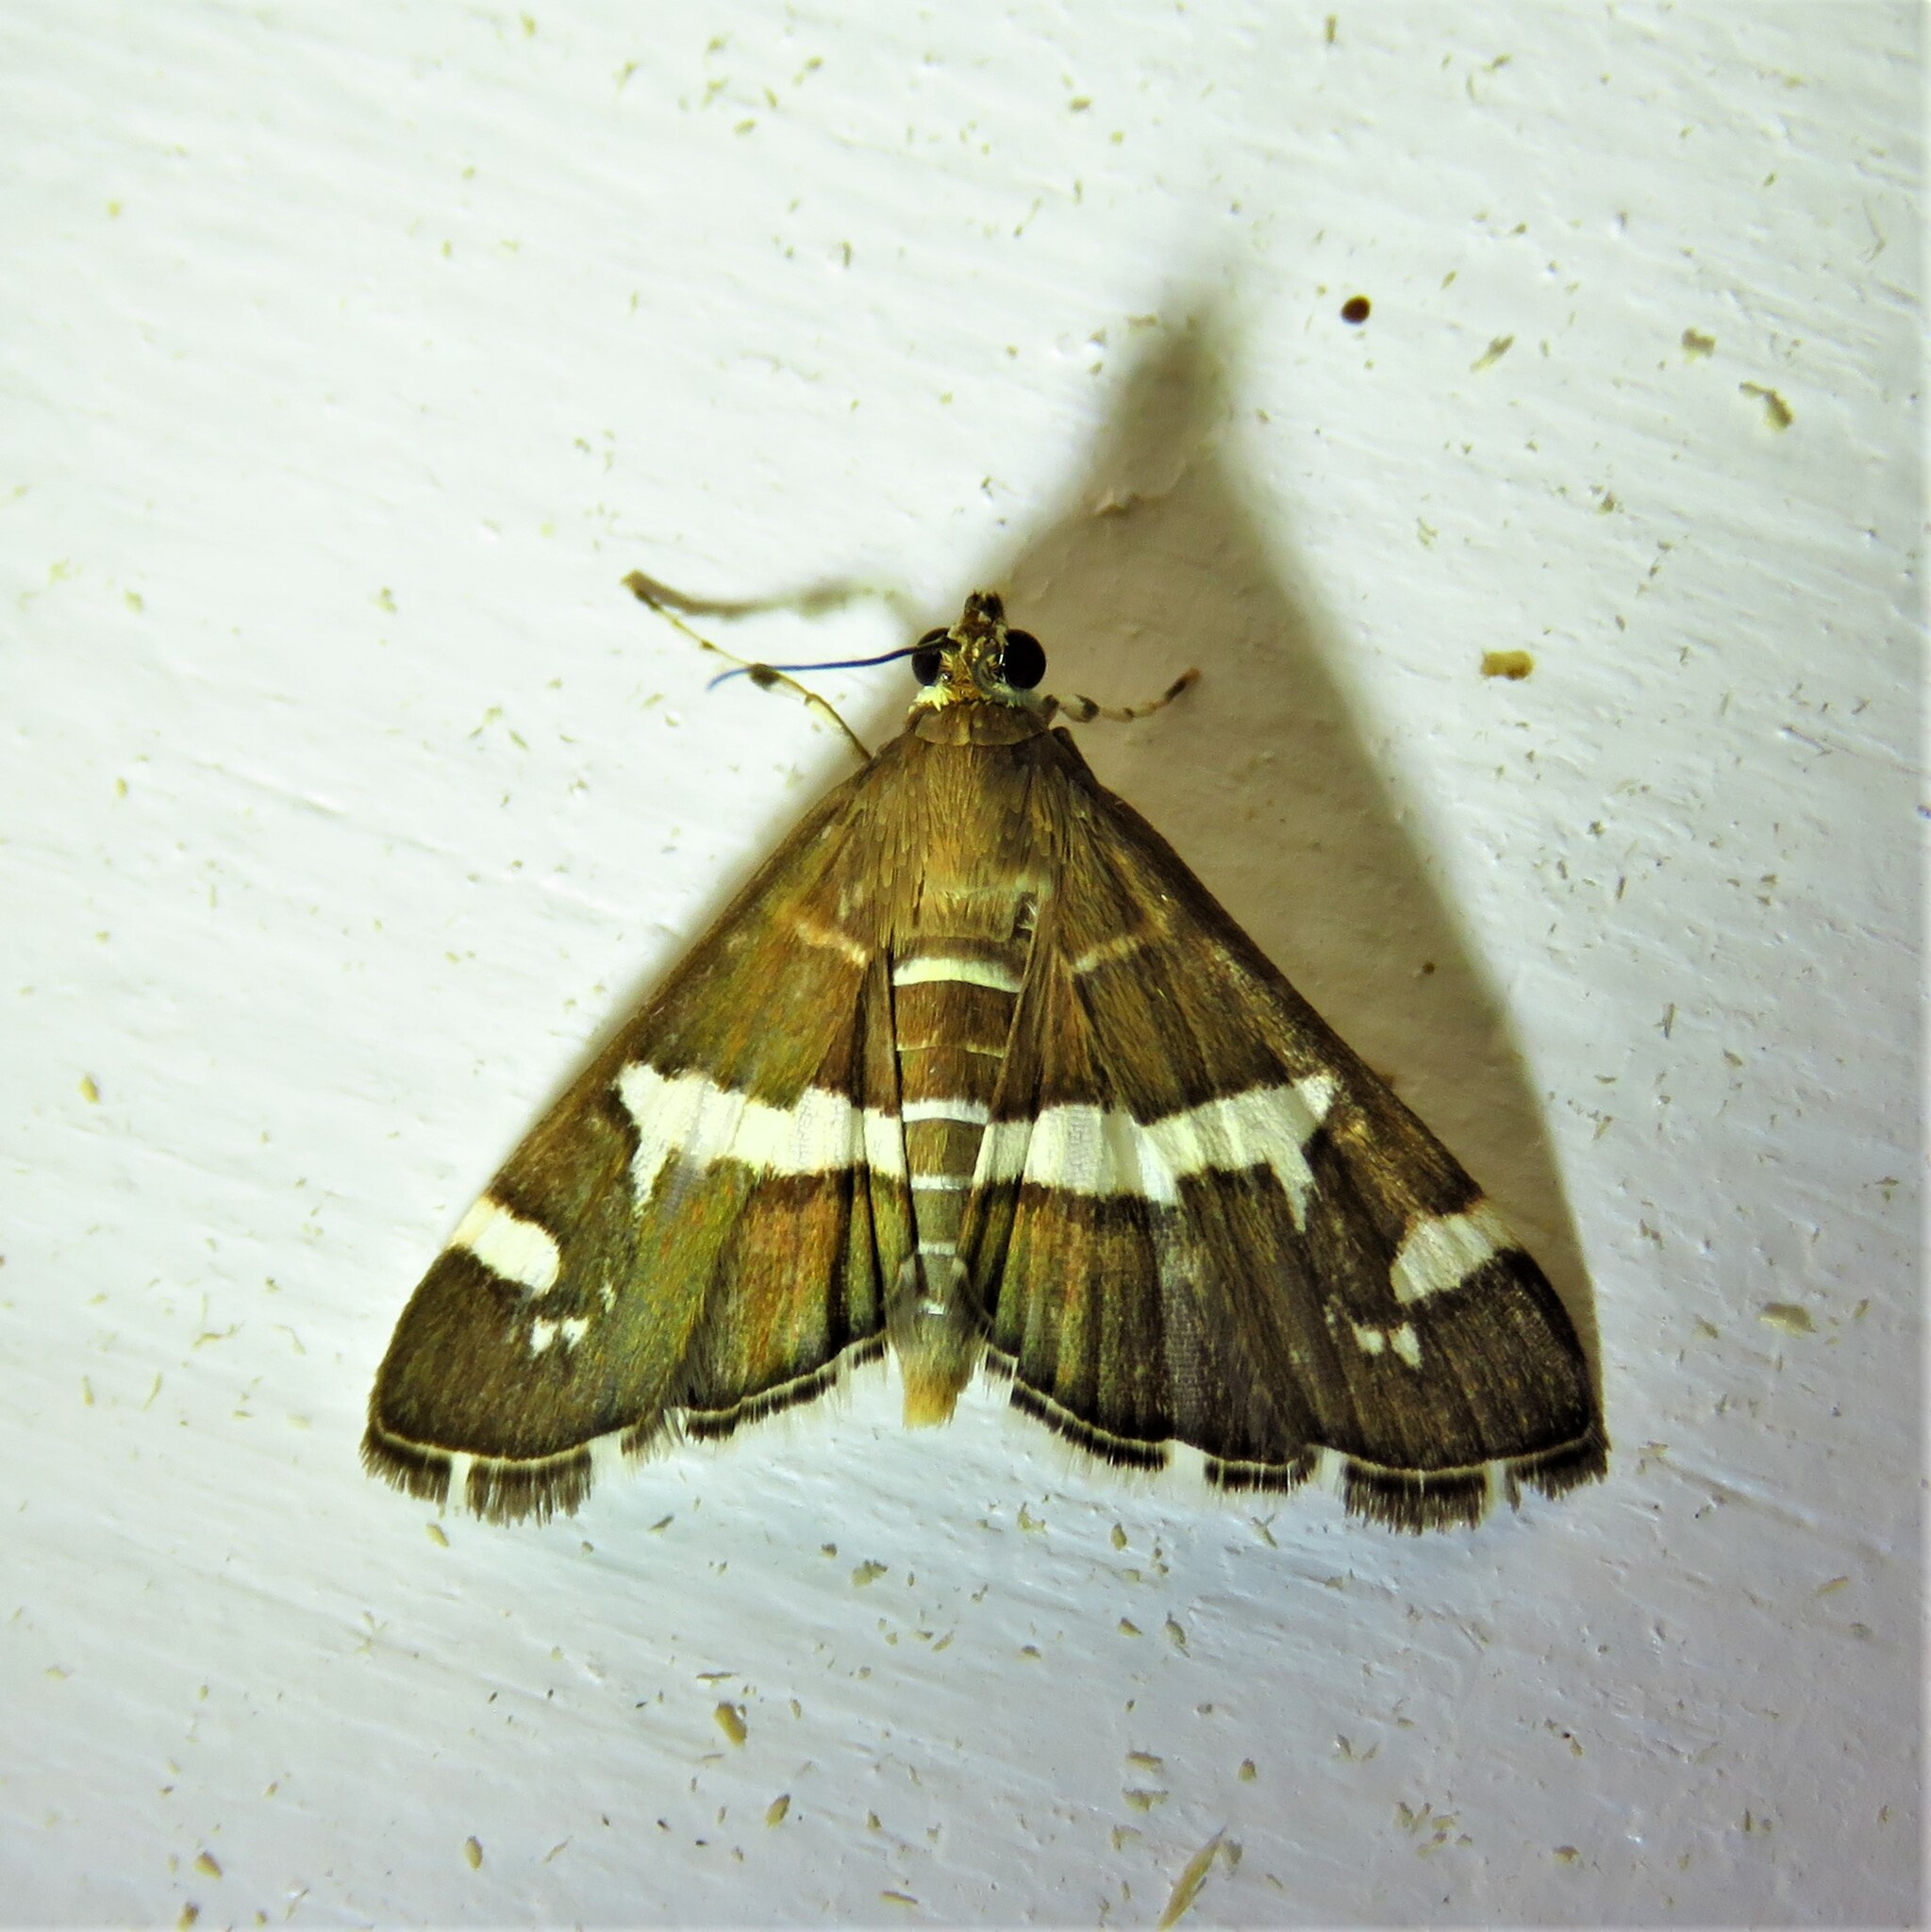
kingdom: Animalia
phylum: Arthropoda
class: Insecta
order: Lepidoptera
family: Crambidae
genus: Spoladea
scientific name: Spoladea recurvalis
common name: Beet webworm moth
